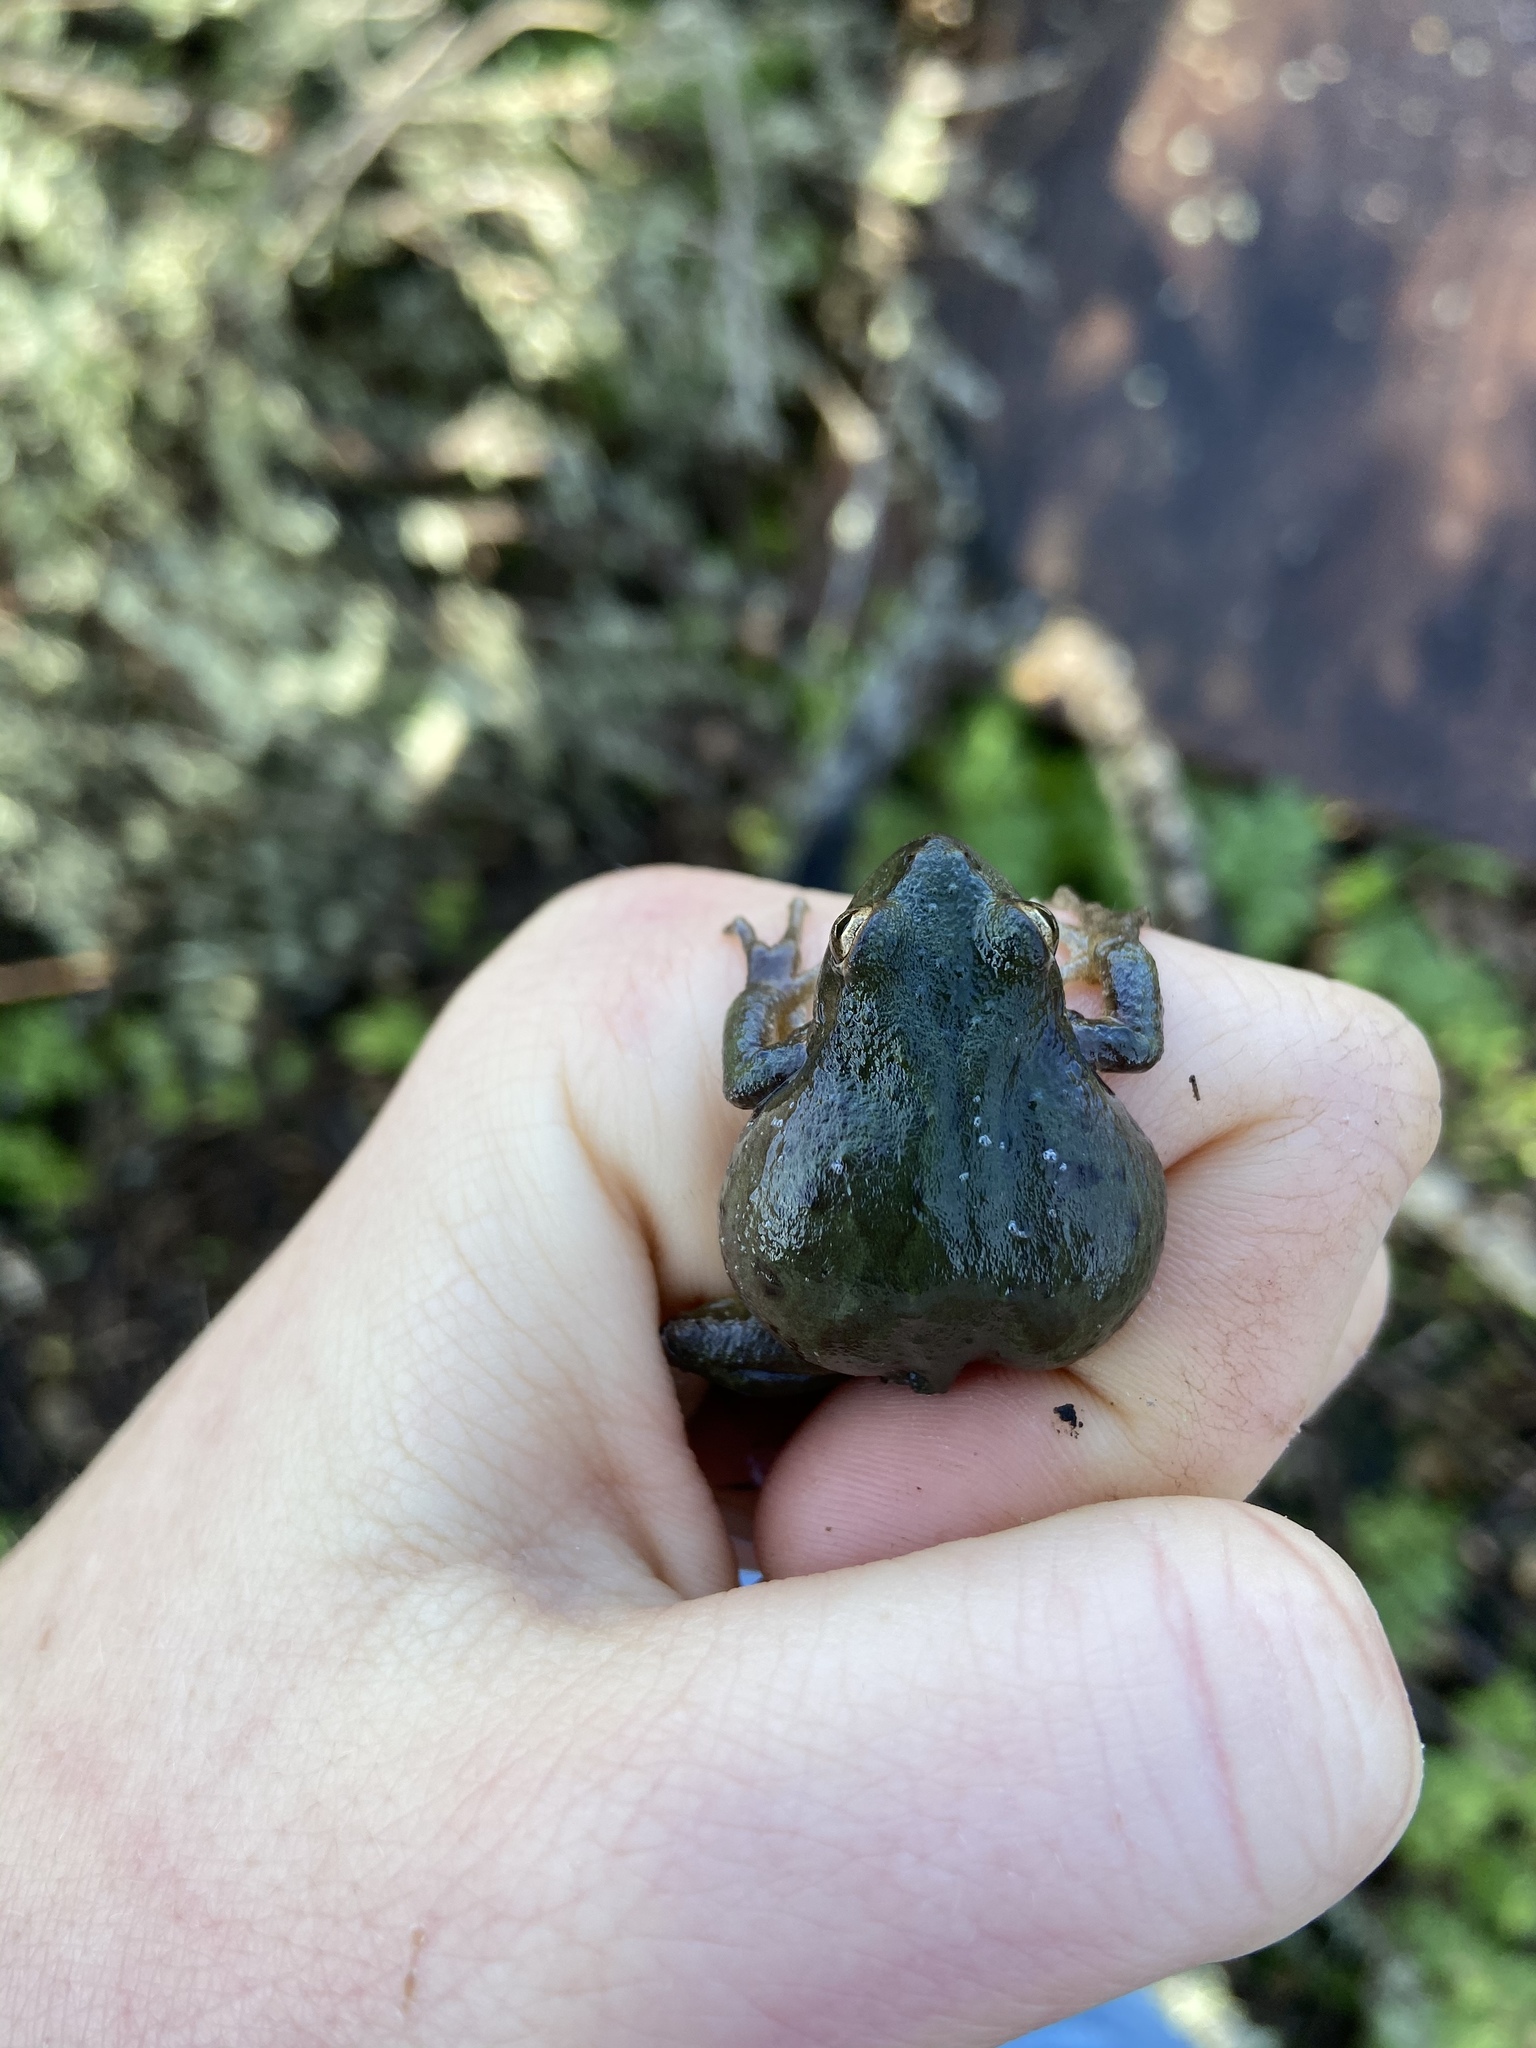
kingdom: Animalia
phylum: Chordata
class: Amphibia
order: Anura
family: Hylidae
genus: Pseudacris
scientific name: Pseudacris regilla
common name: Pacific chorus frog
